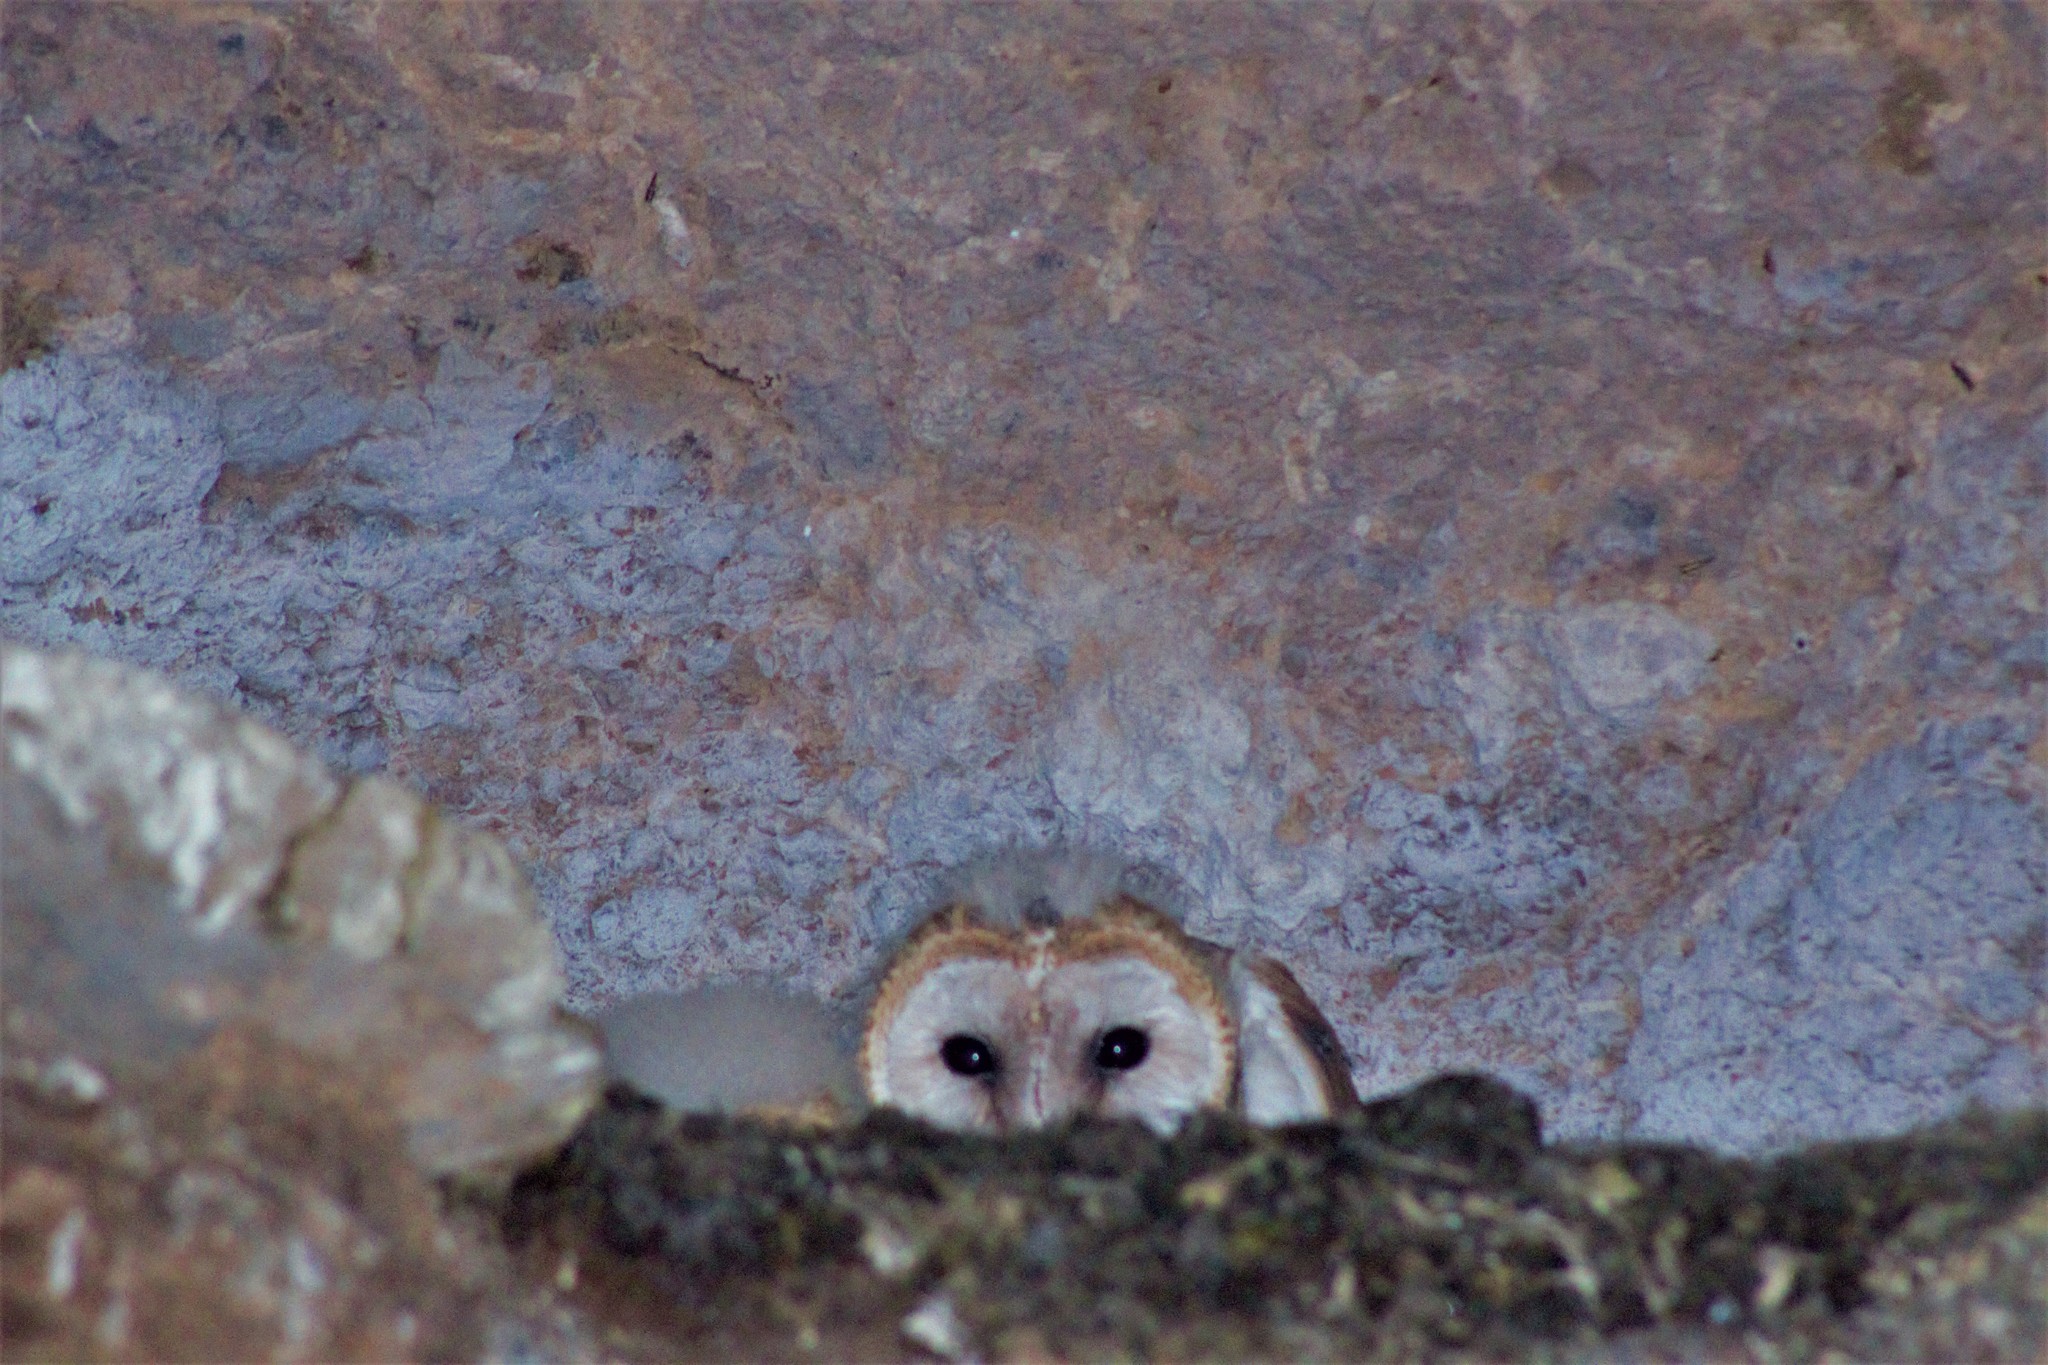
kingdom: Animalia
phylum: Chordata
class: Aves
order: Strigiformes
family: Tytonidae
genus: Tyto
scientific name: Tyto alba
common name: Barn owl
